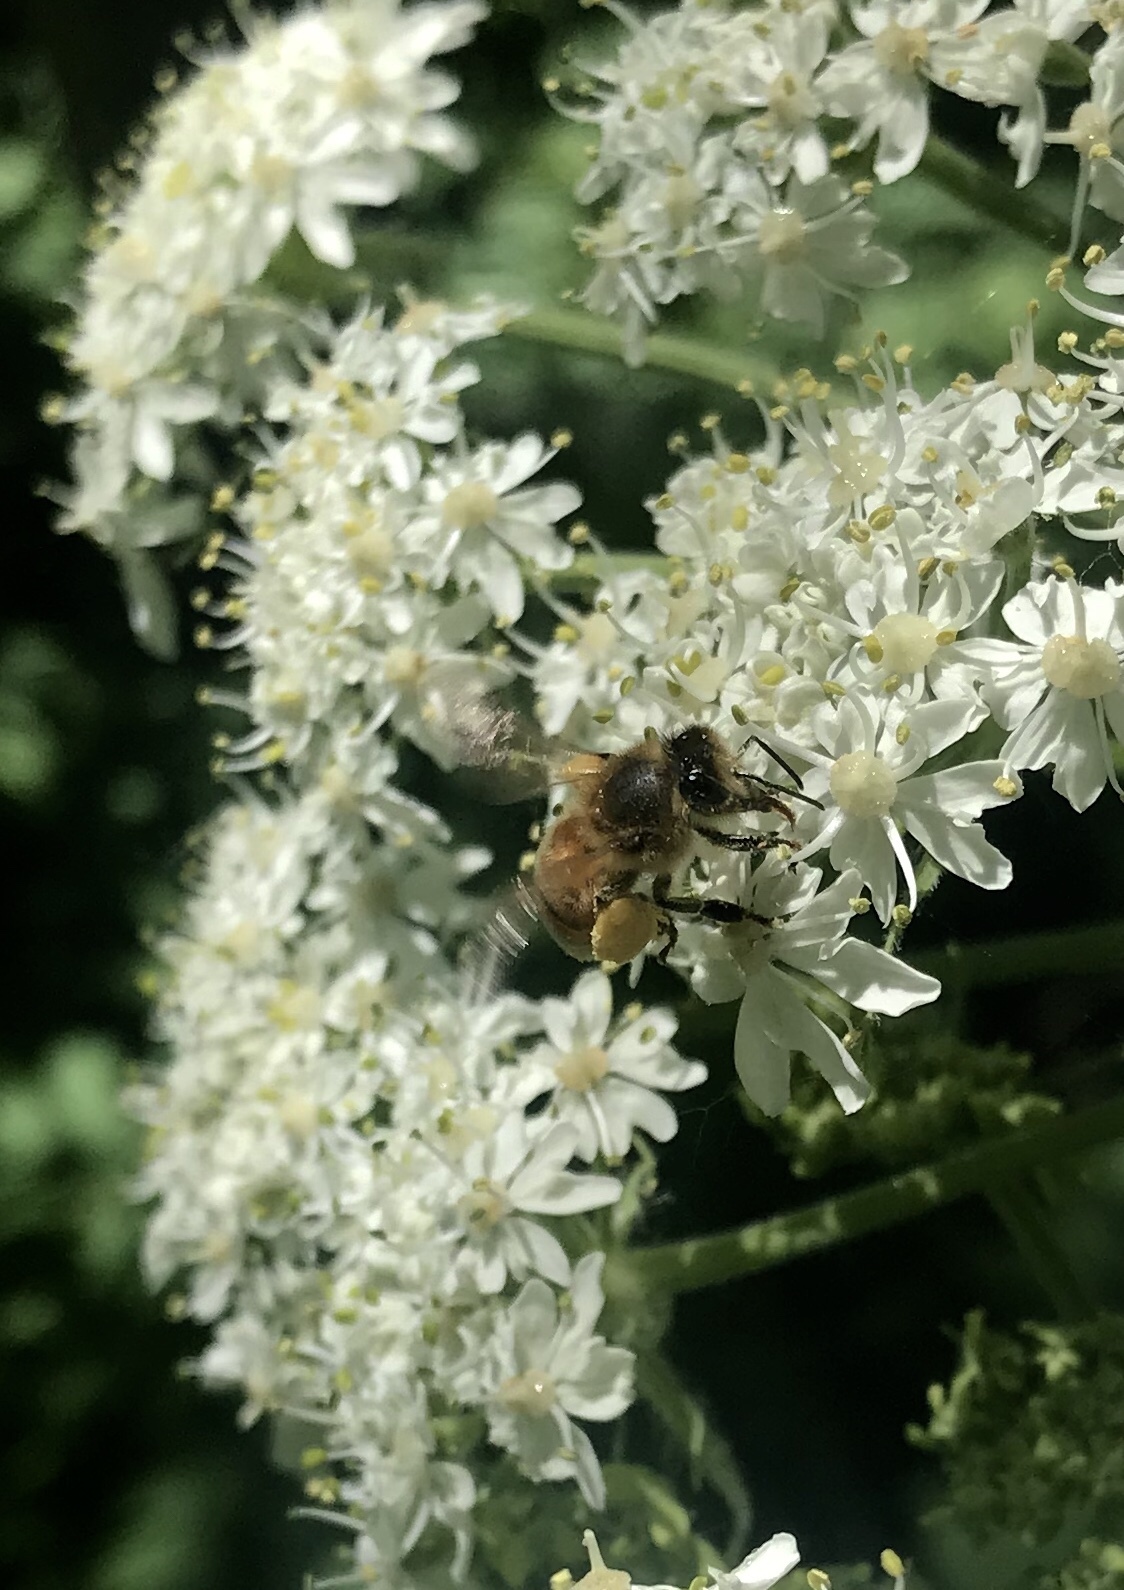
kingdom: Animalia
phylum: Arthropoda
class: Insecta
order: Hymenoptera
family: Apidae
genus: Apis
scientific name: Apis mellifera
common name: Honey bee
